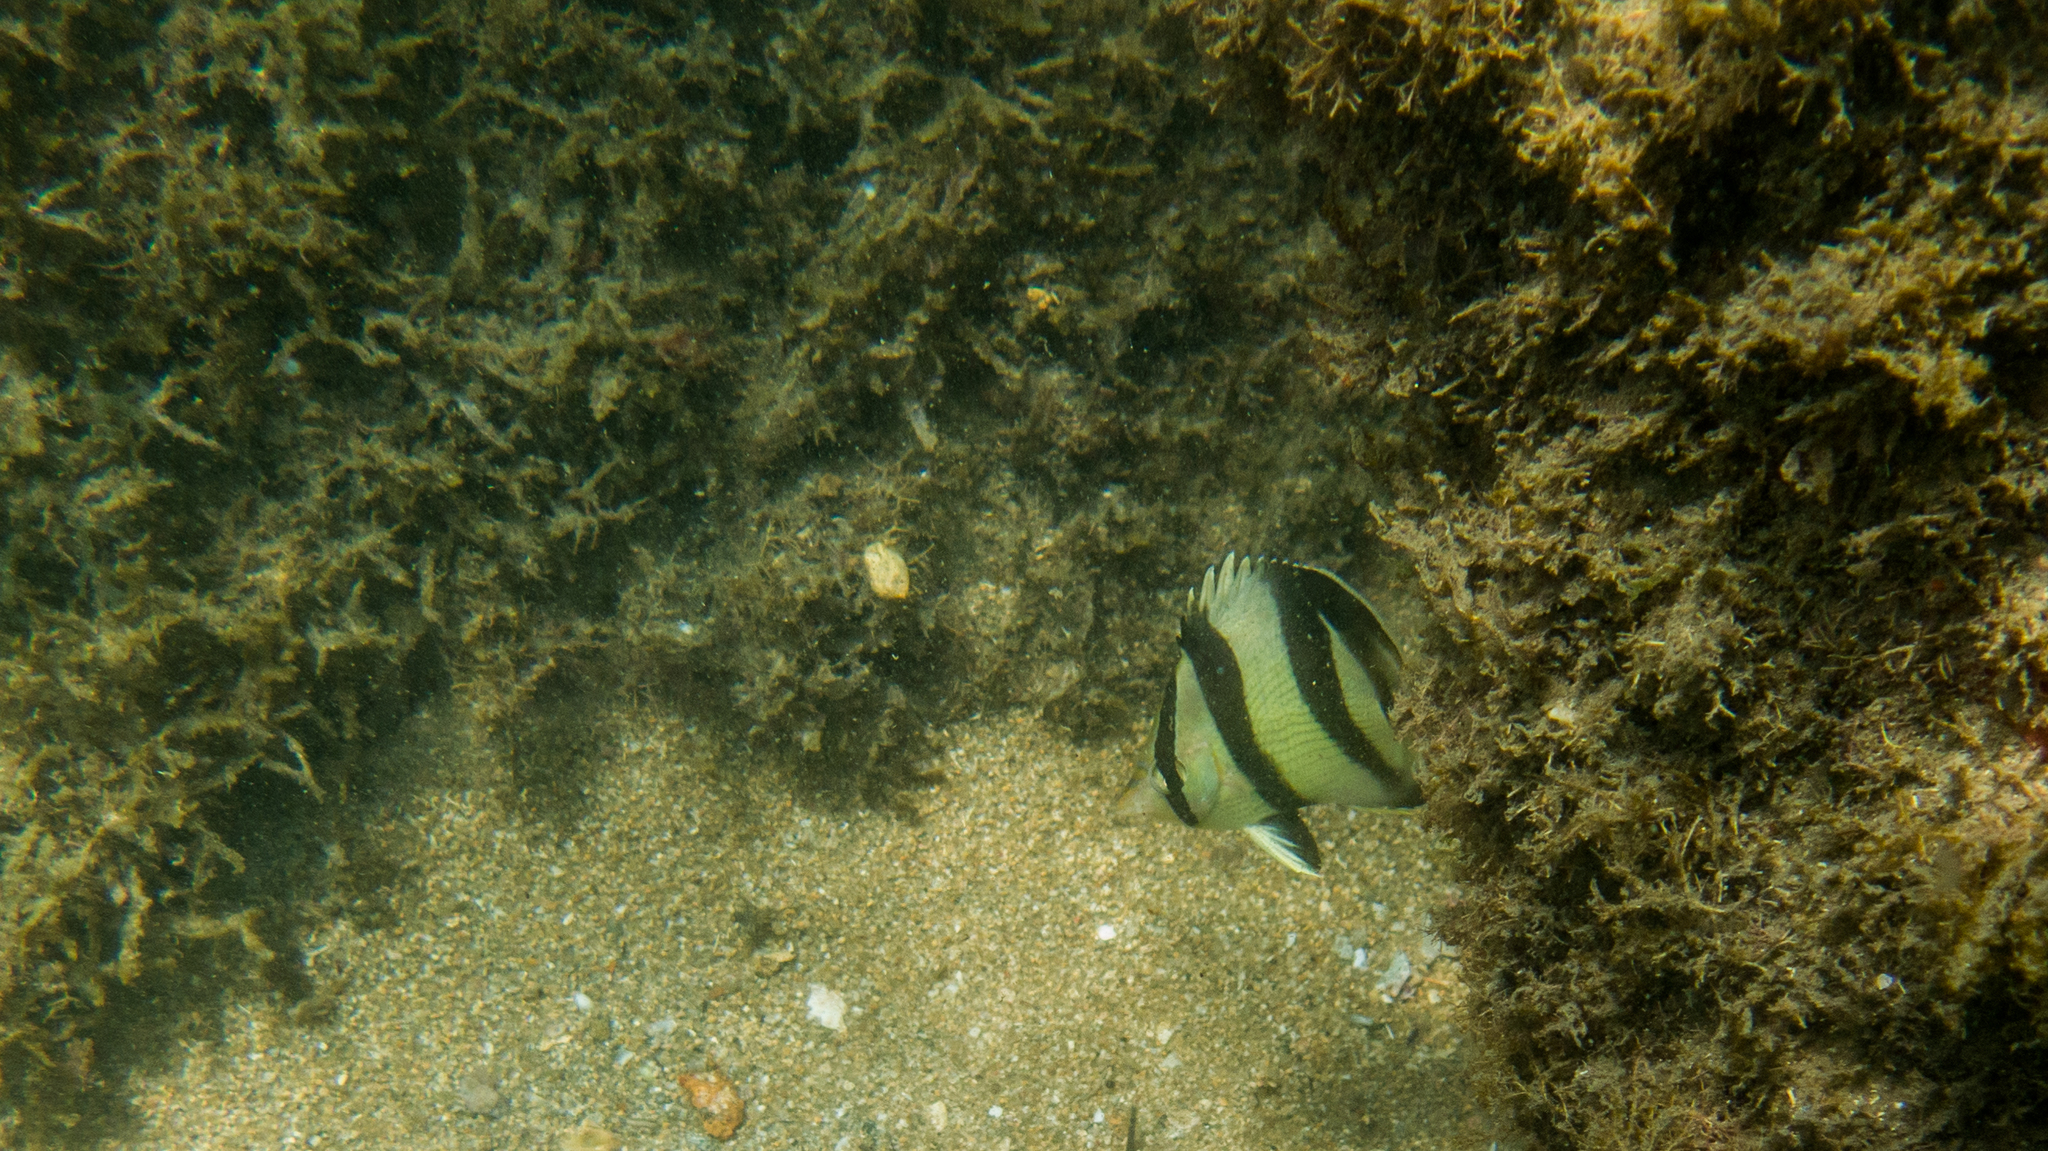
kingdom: Animalia
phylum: Chordata
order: Perciformes
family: Chaetodontidae
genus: Chaetodon
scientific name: Chaetodon striatus
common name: Banded butterflyfish
